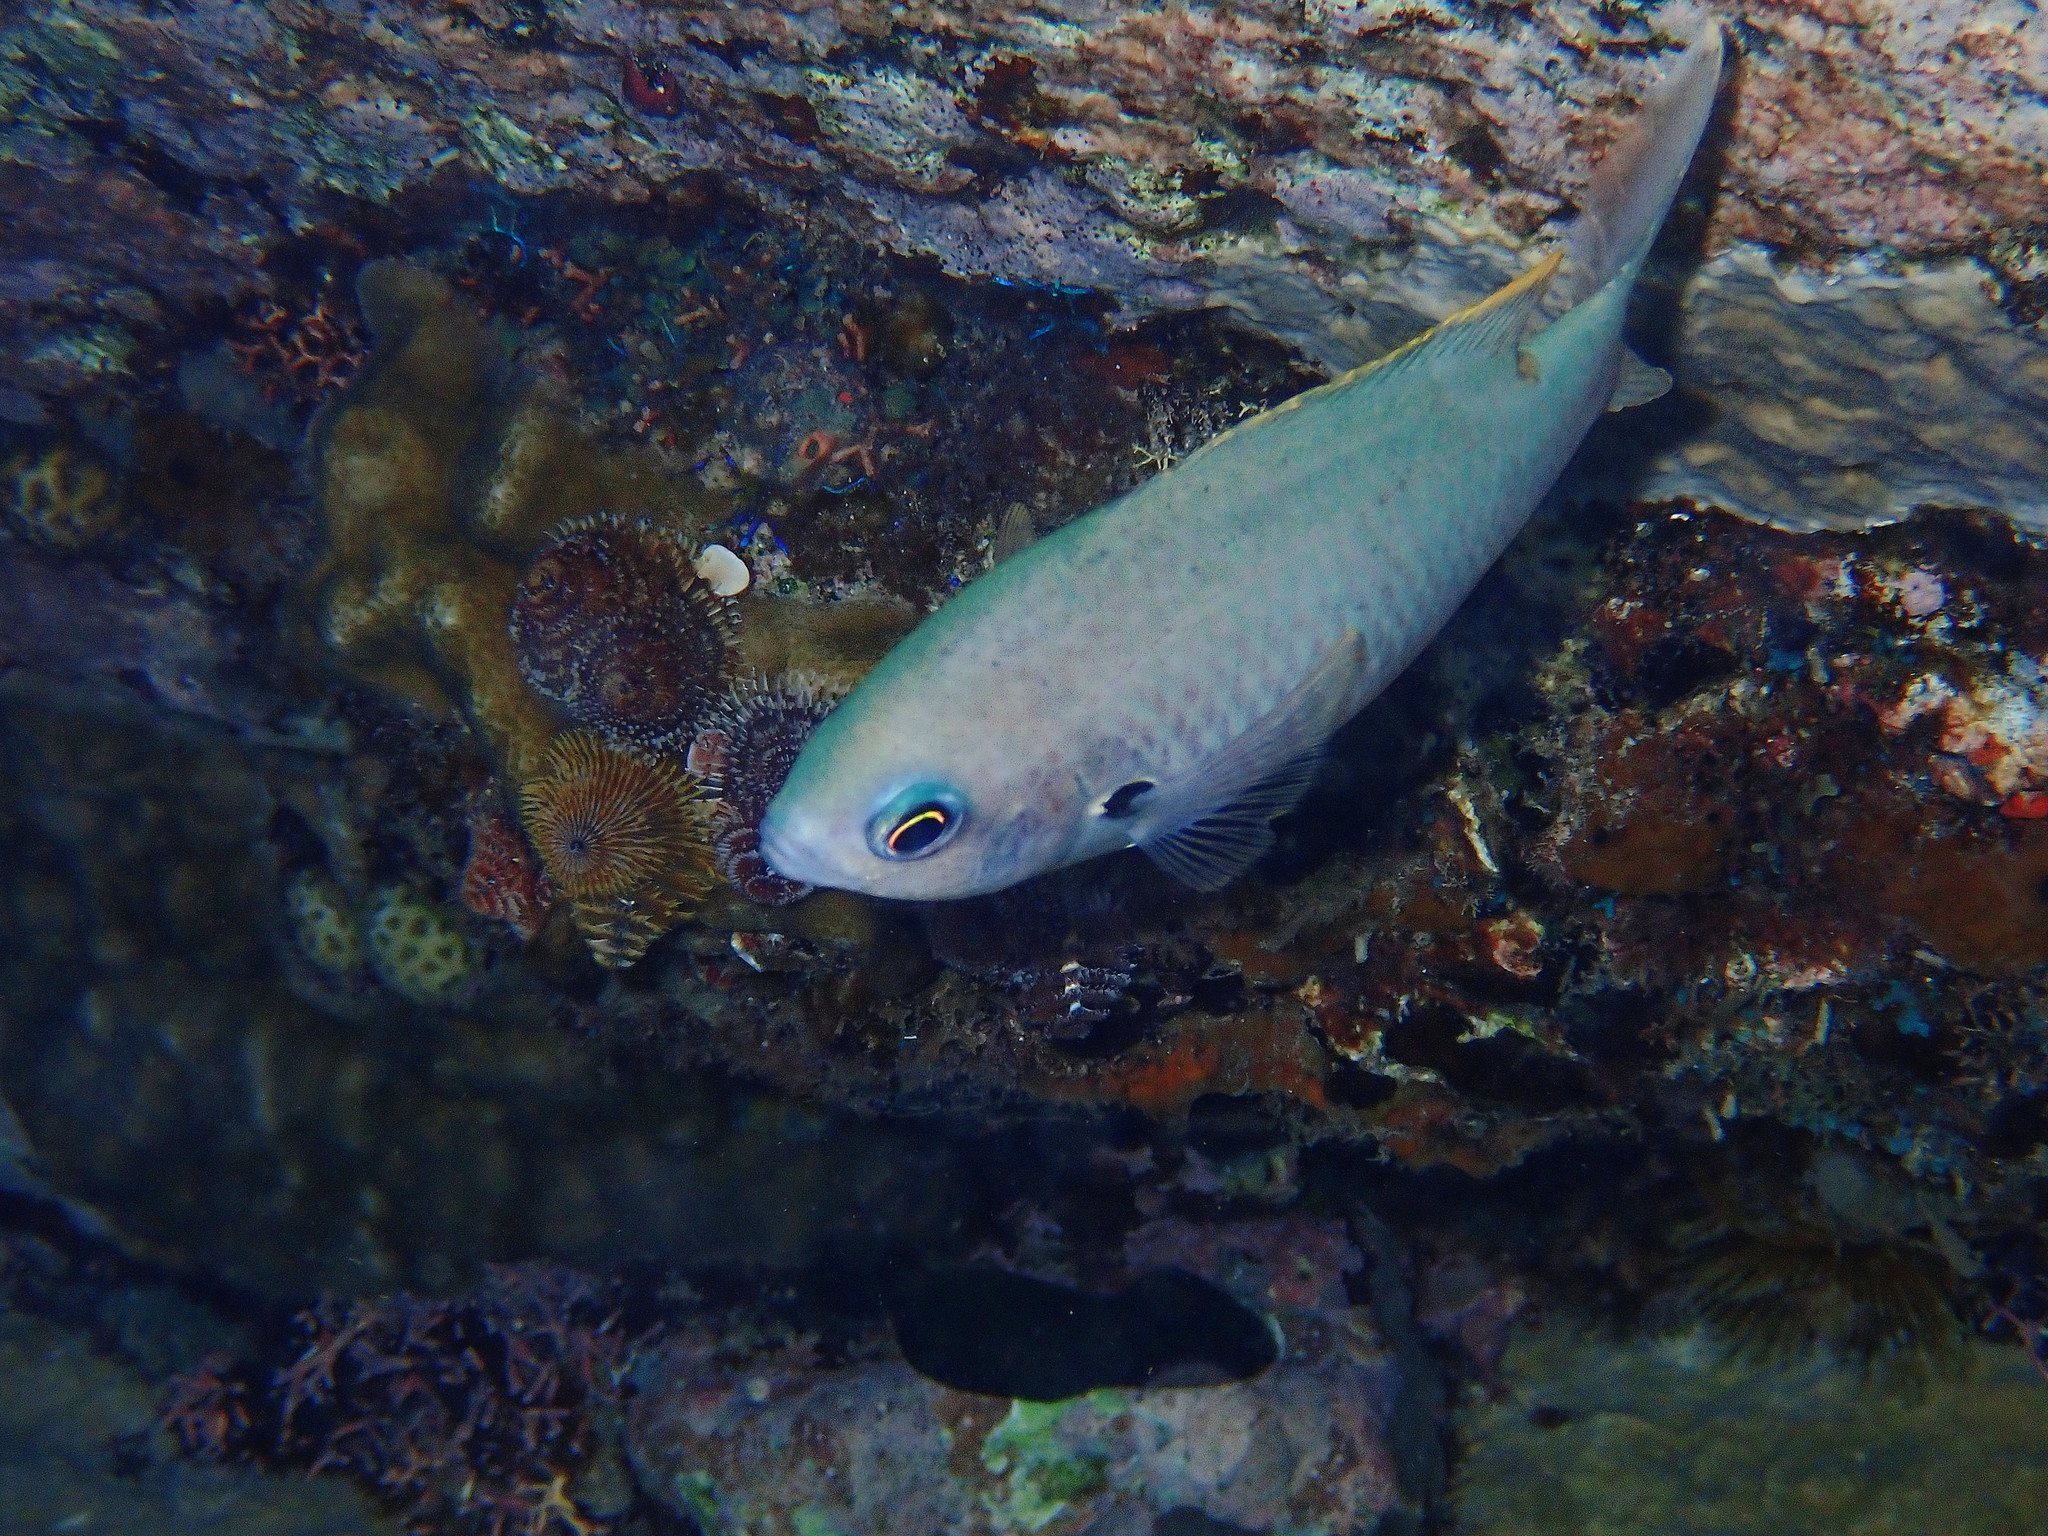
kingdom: Animalia
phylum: Chordata
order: Perciformes
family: Pomacentridae
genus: Chromis
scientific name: Chromis multilineata
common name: Brown chromis
